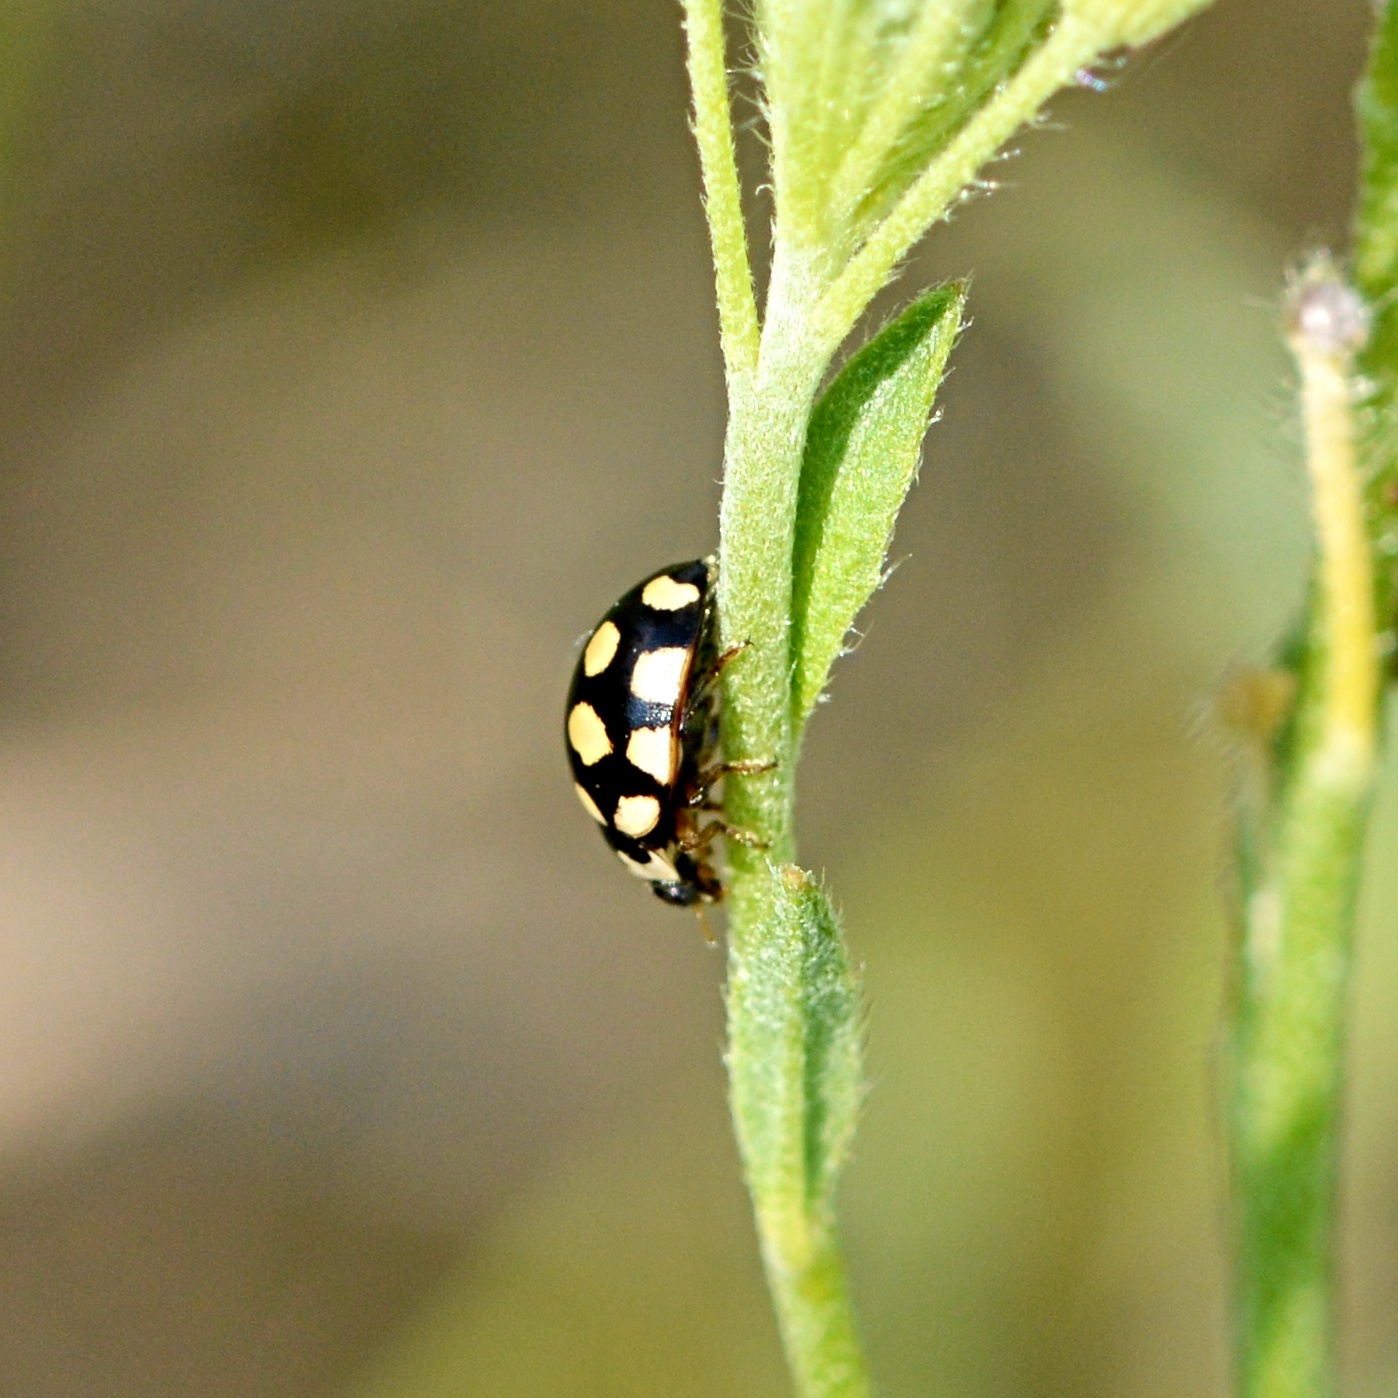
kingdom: Animalia
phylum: Arthropoda
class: Insecta
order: Coleoptera
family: Coccinellidae
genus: Coccinula
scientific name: Coccinula quatuordecimpustulata
